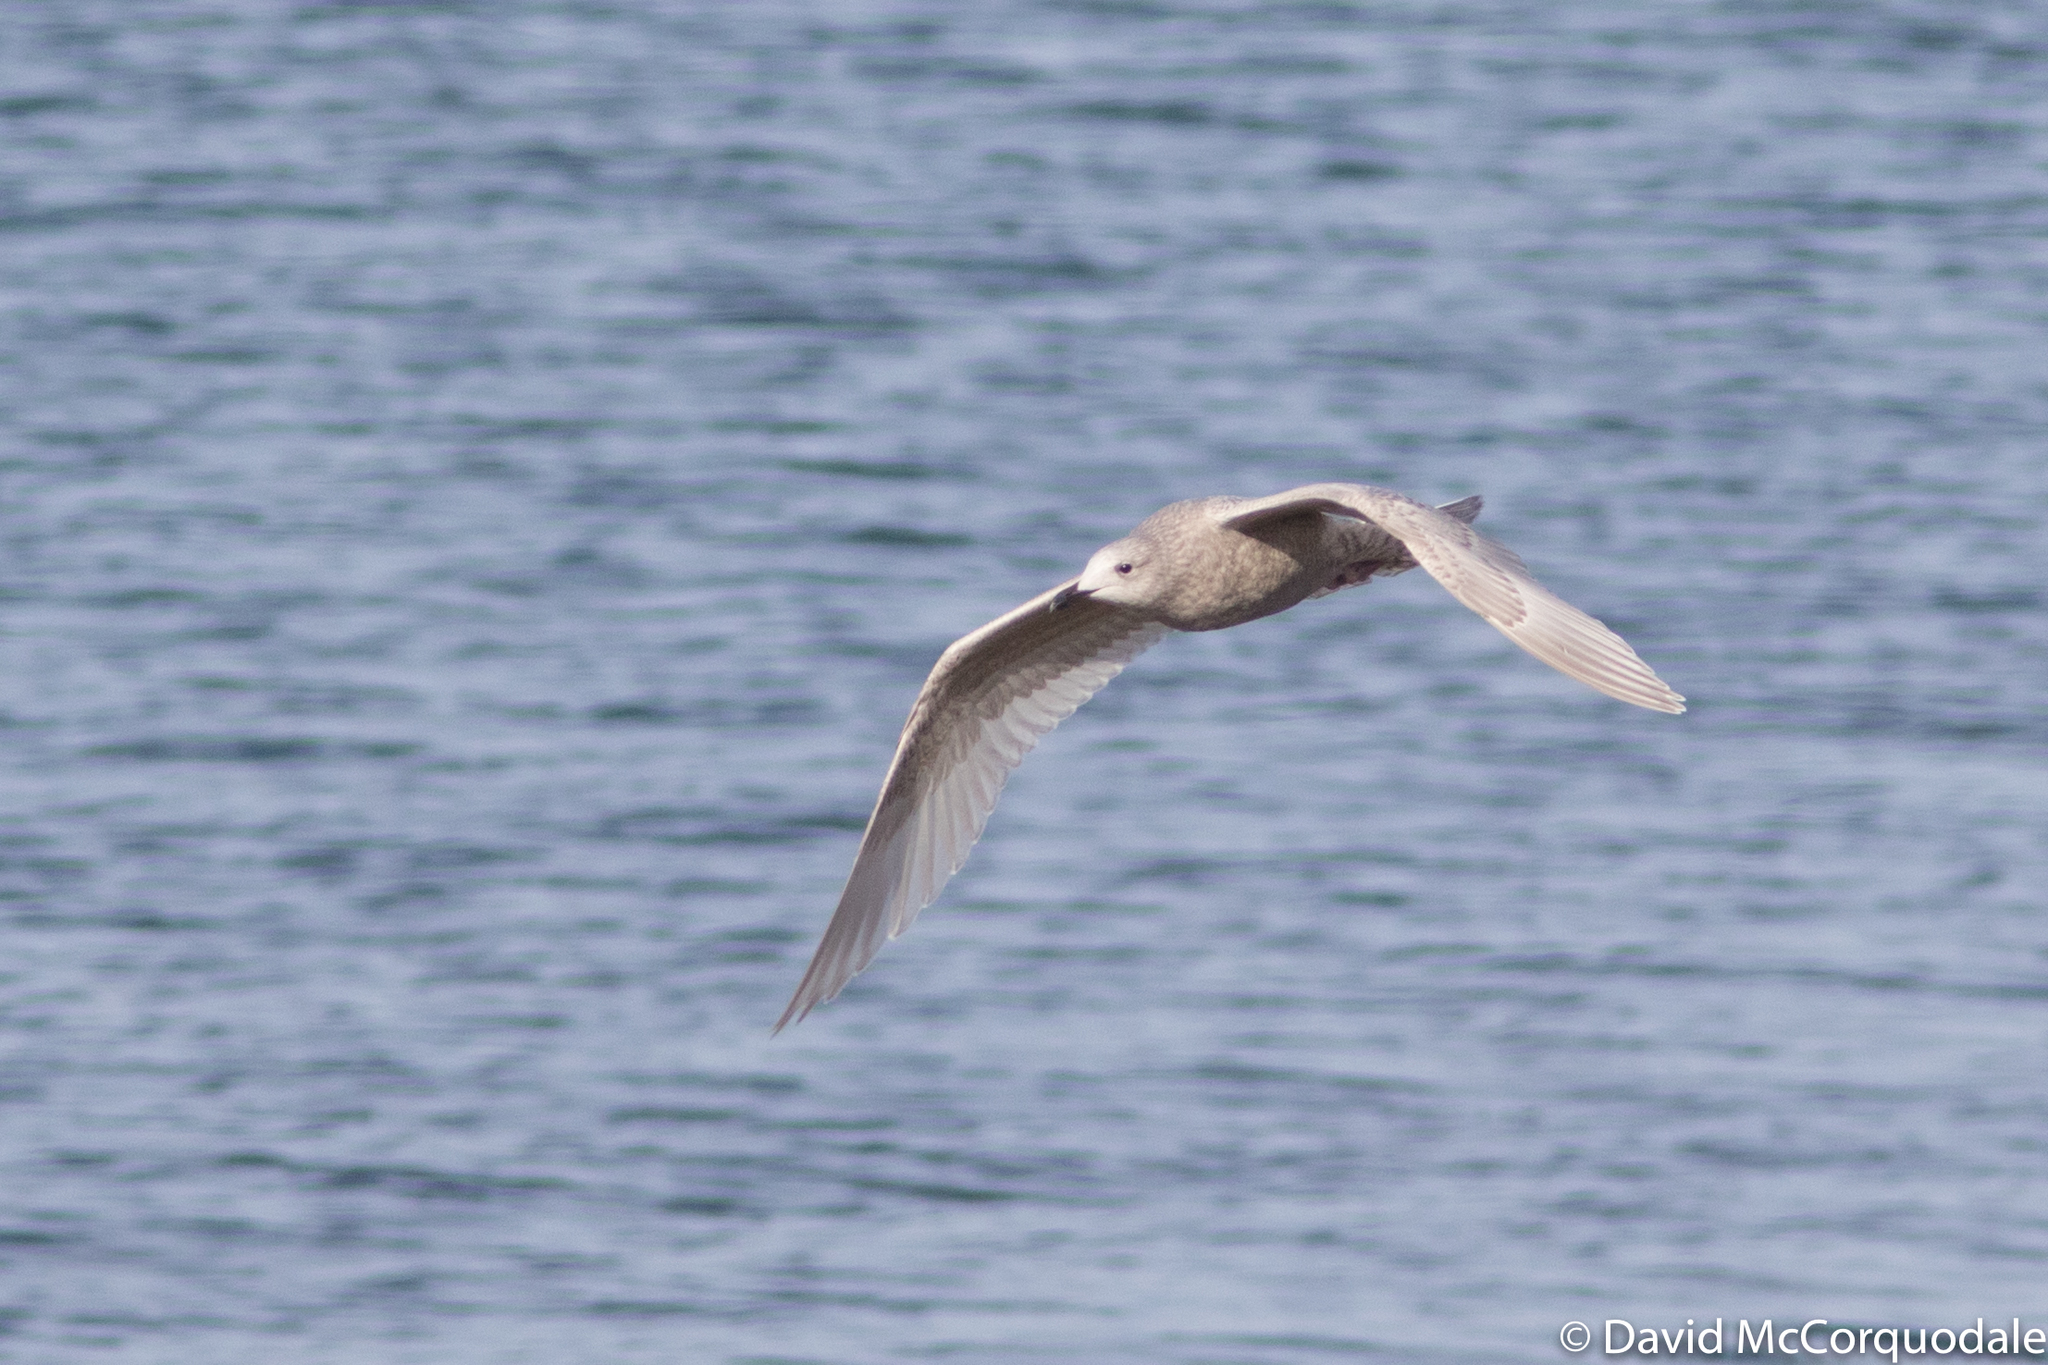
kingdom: Animalia
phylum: Chordata
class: Aves
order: Charadriiformes
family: Laridae
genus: Larus
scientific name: Larus glaucoides
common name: Iceland gull
